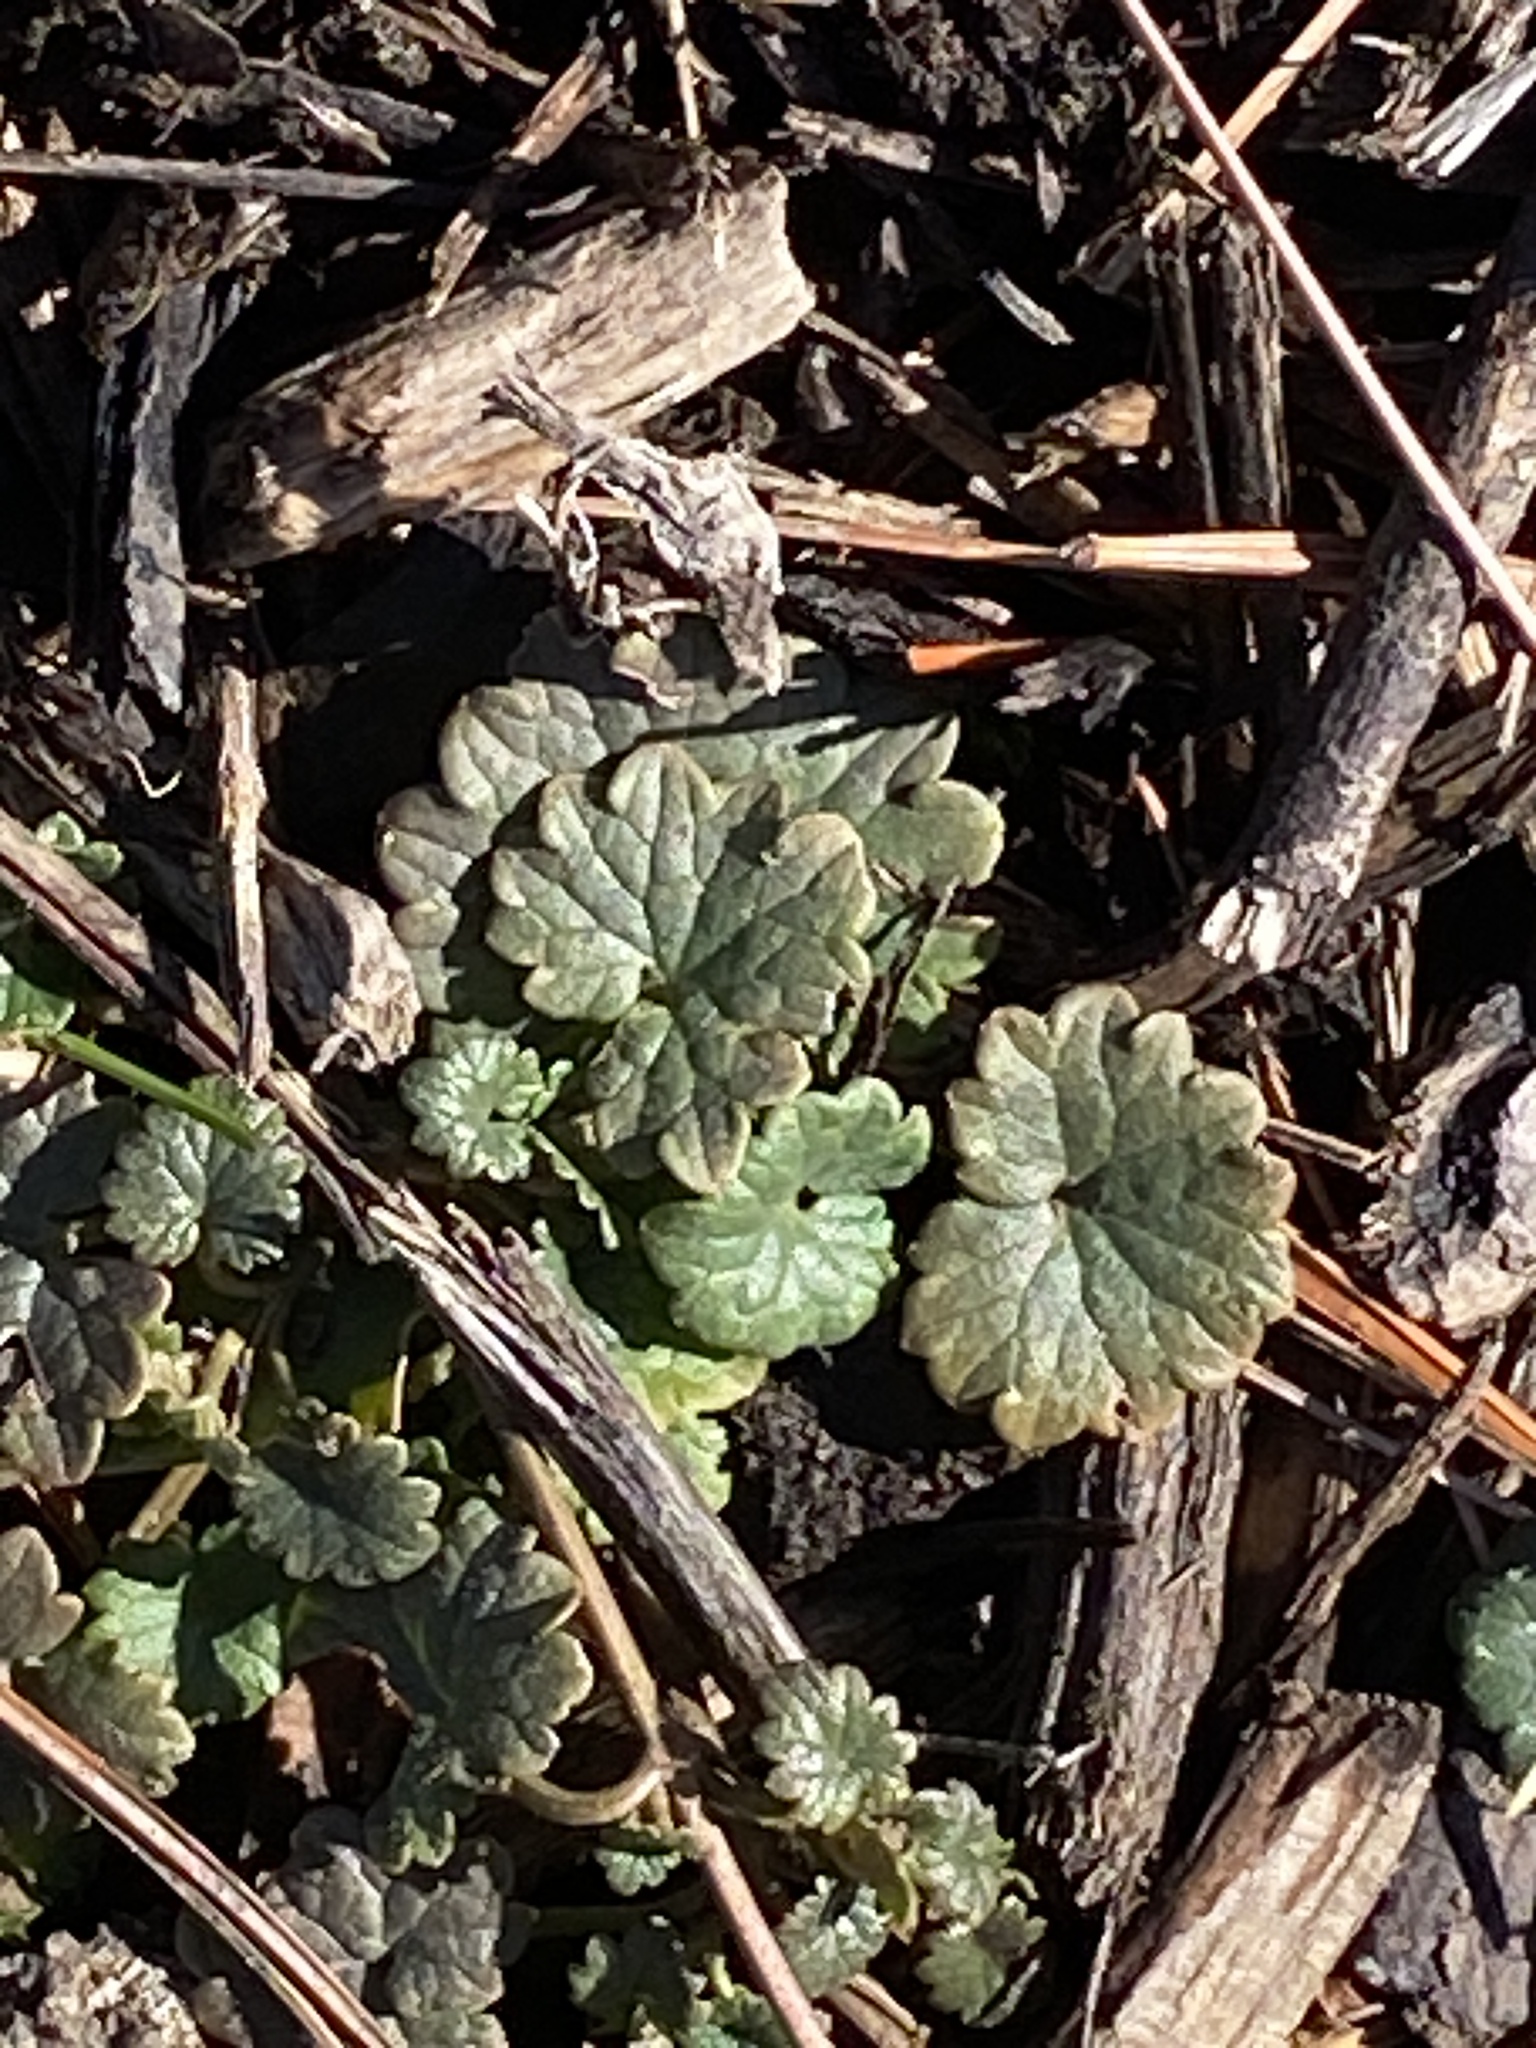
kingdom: Plantae
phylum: Tracheophyta
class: Magnoliopsida
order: Lamiales
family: Lamiaceae
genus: Glechoma
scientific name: Glechoma hederacea
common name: Ground ivy
